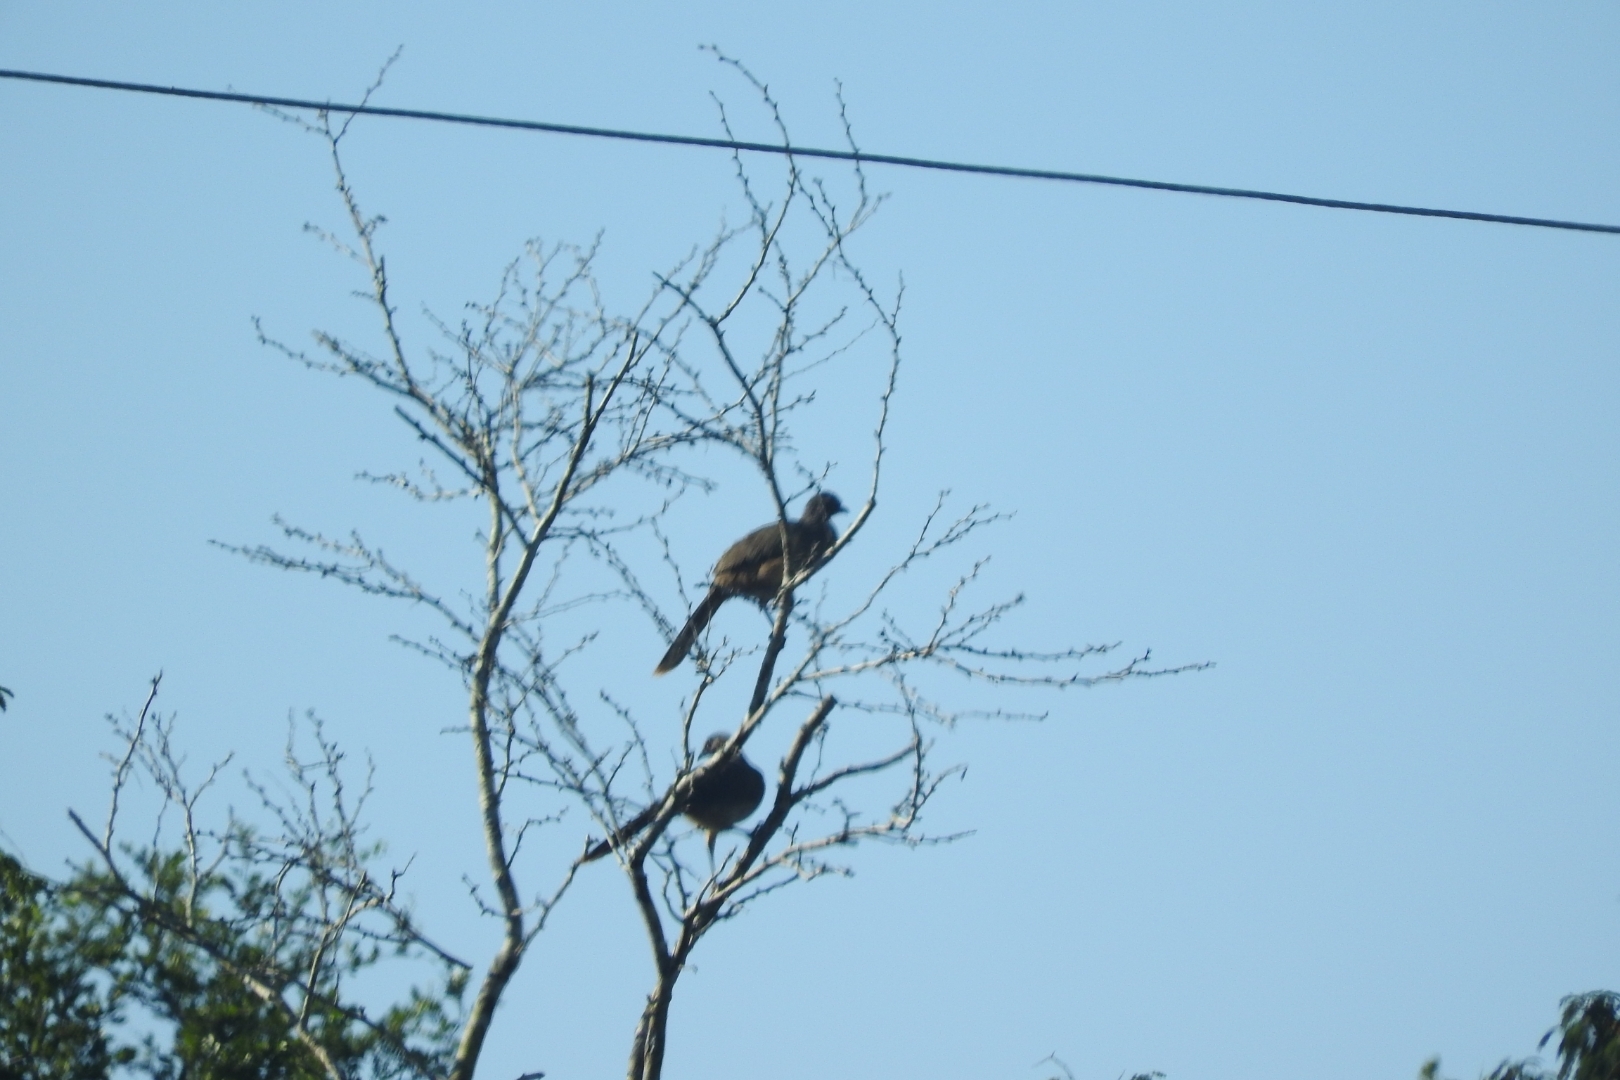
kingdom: Animalia
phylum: Chordata
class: Aves
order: Galliformes
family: Cracidae
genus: Ortalis
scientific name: Ortalis vetula
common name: Plain chachalaca
